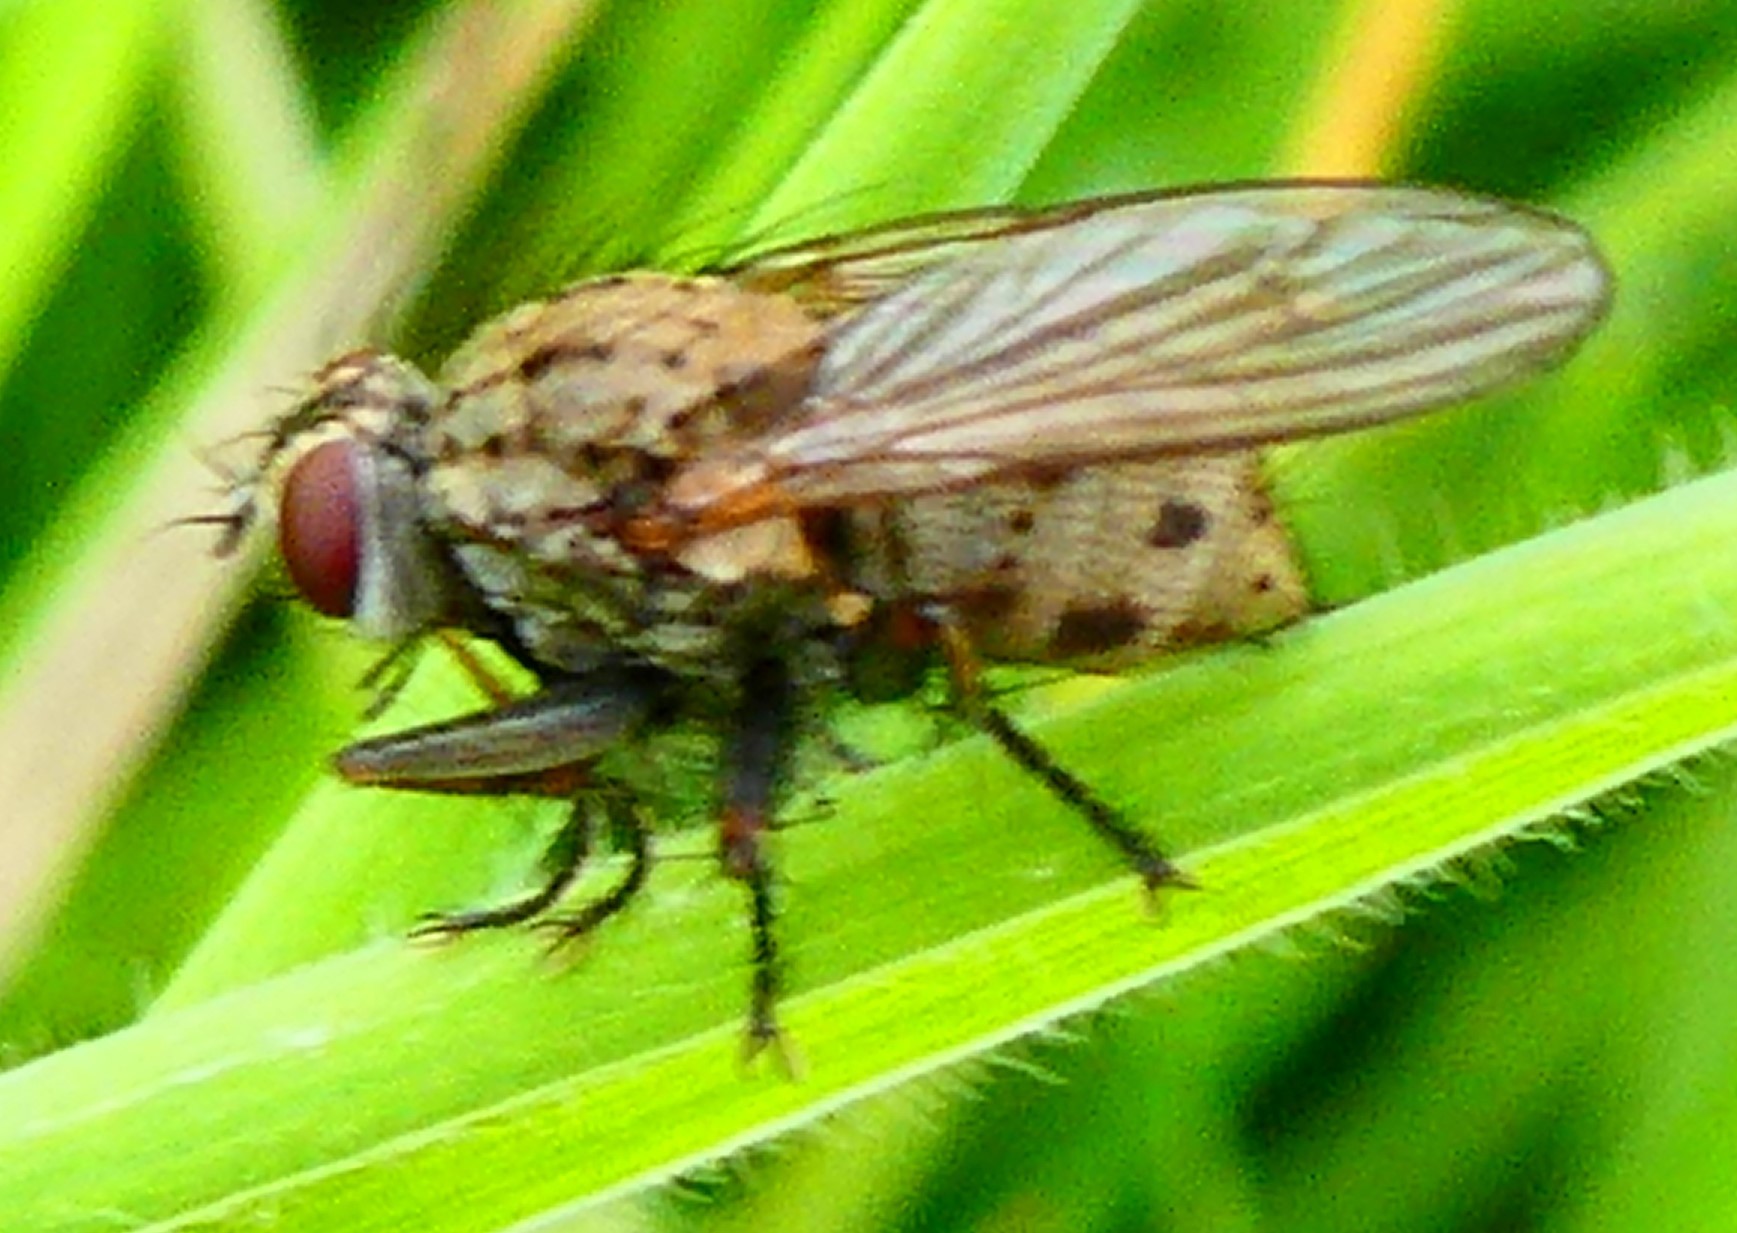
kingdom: Animalia
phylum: Arthropoda
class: Insecta
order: Diptera
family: Muscidae
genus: Coenosia
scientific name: Coenosia tigrina
